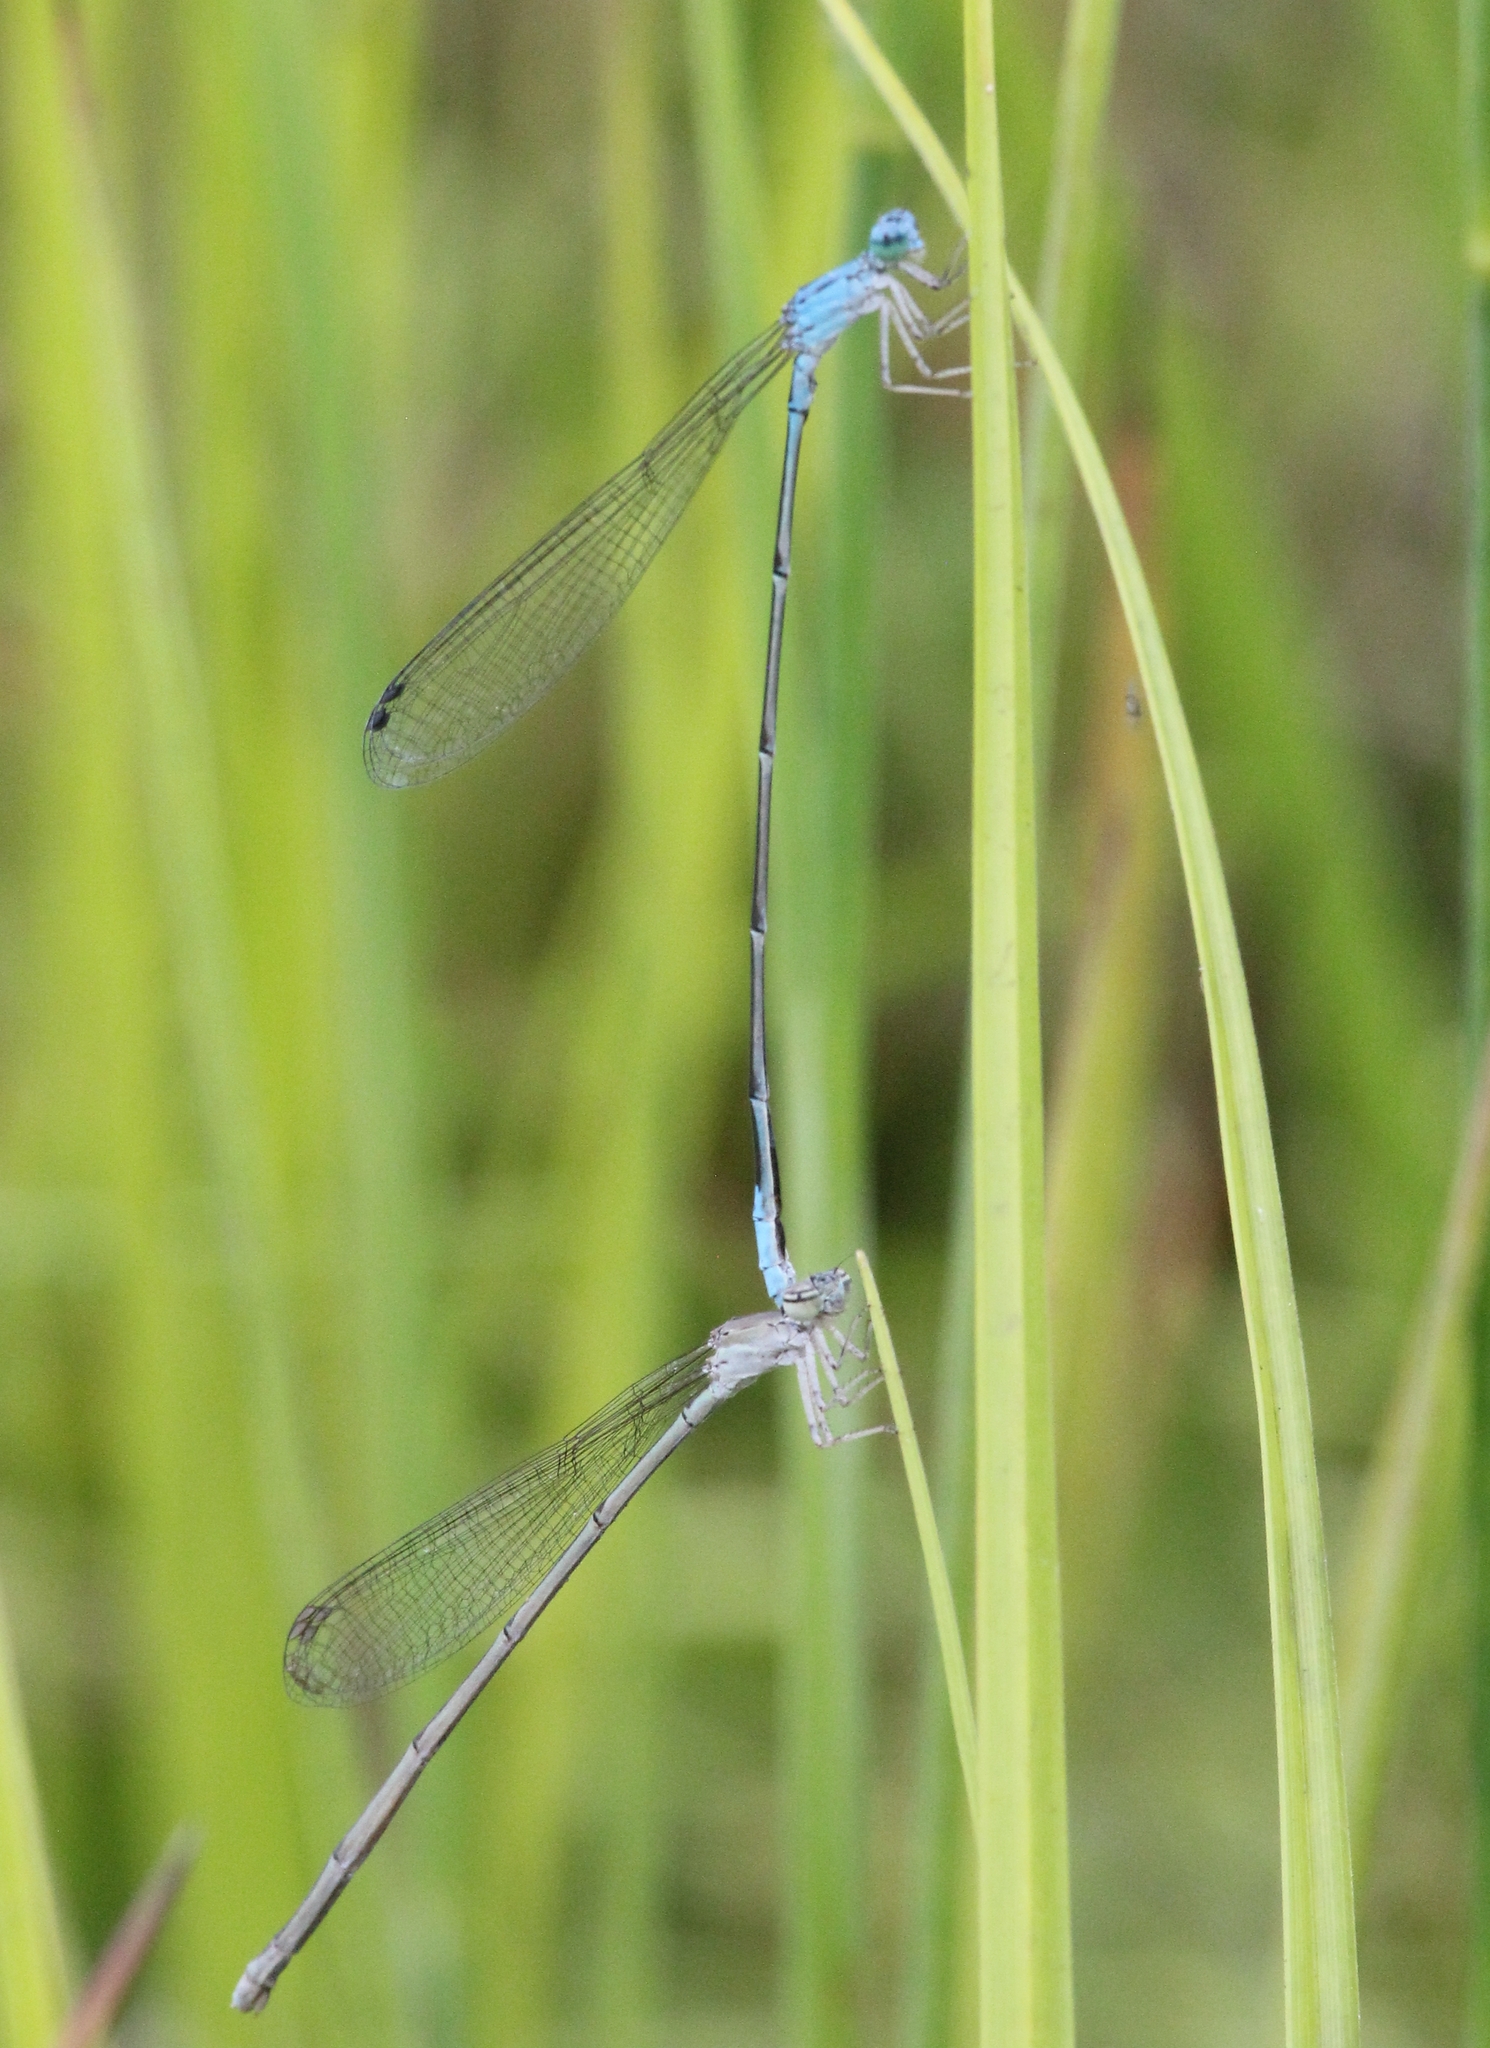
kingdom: Animalia
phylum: Arthropoda
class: Insecta
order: Odonata
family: Coenagrionidae
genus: Enallagma
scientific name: Enallagma daeckii
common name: Attenuated bluet
